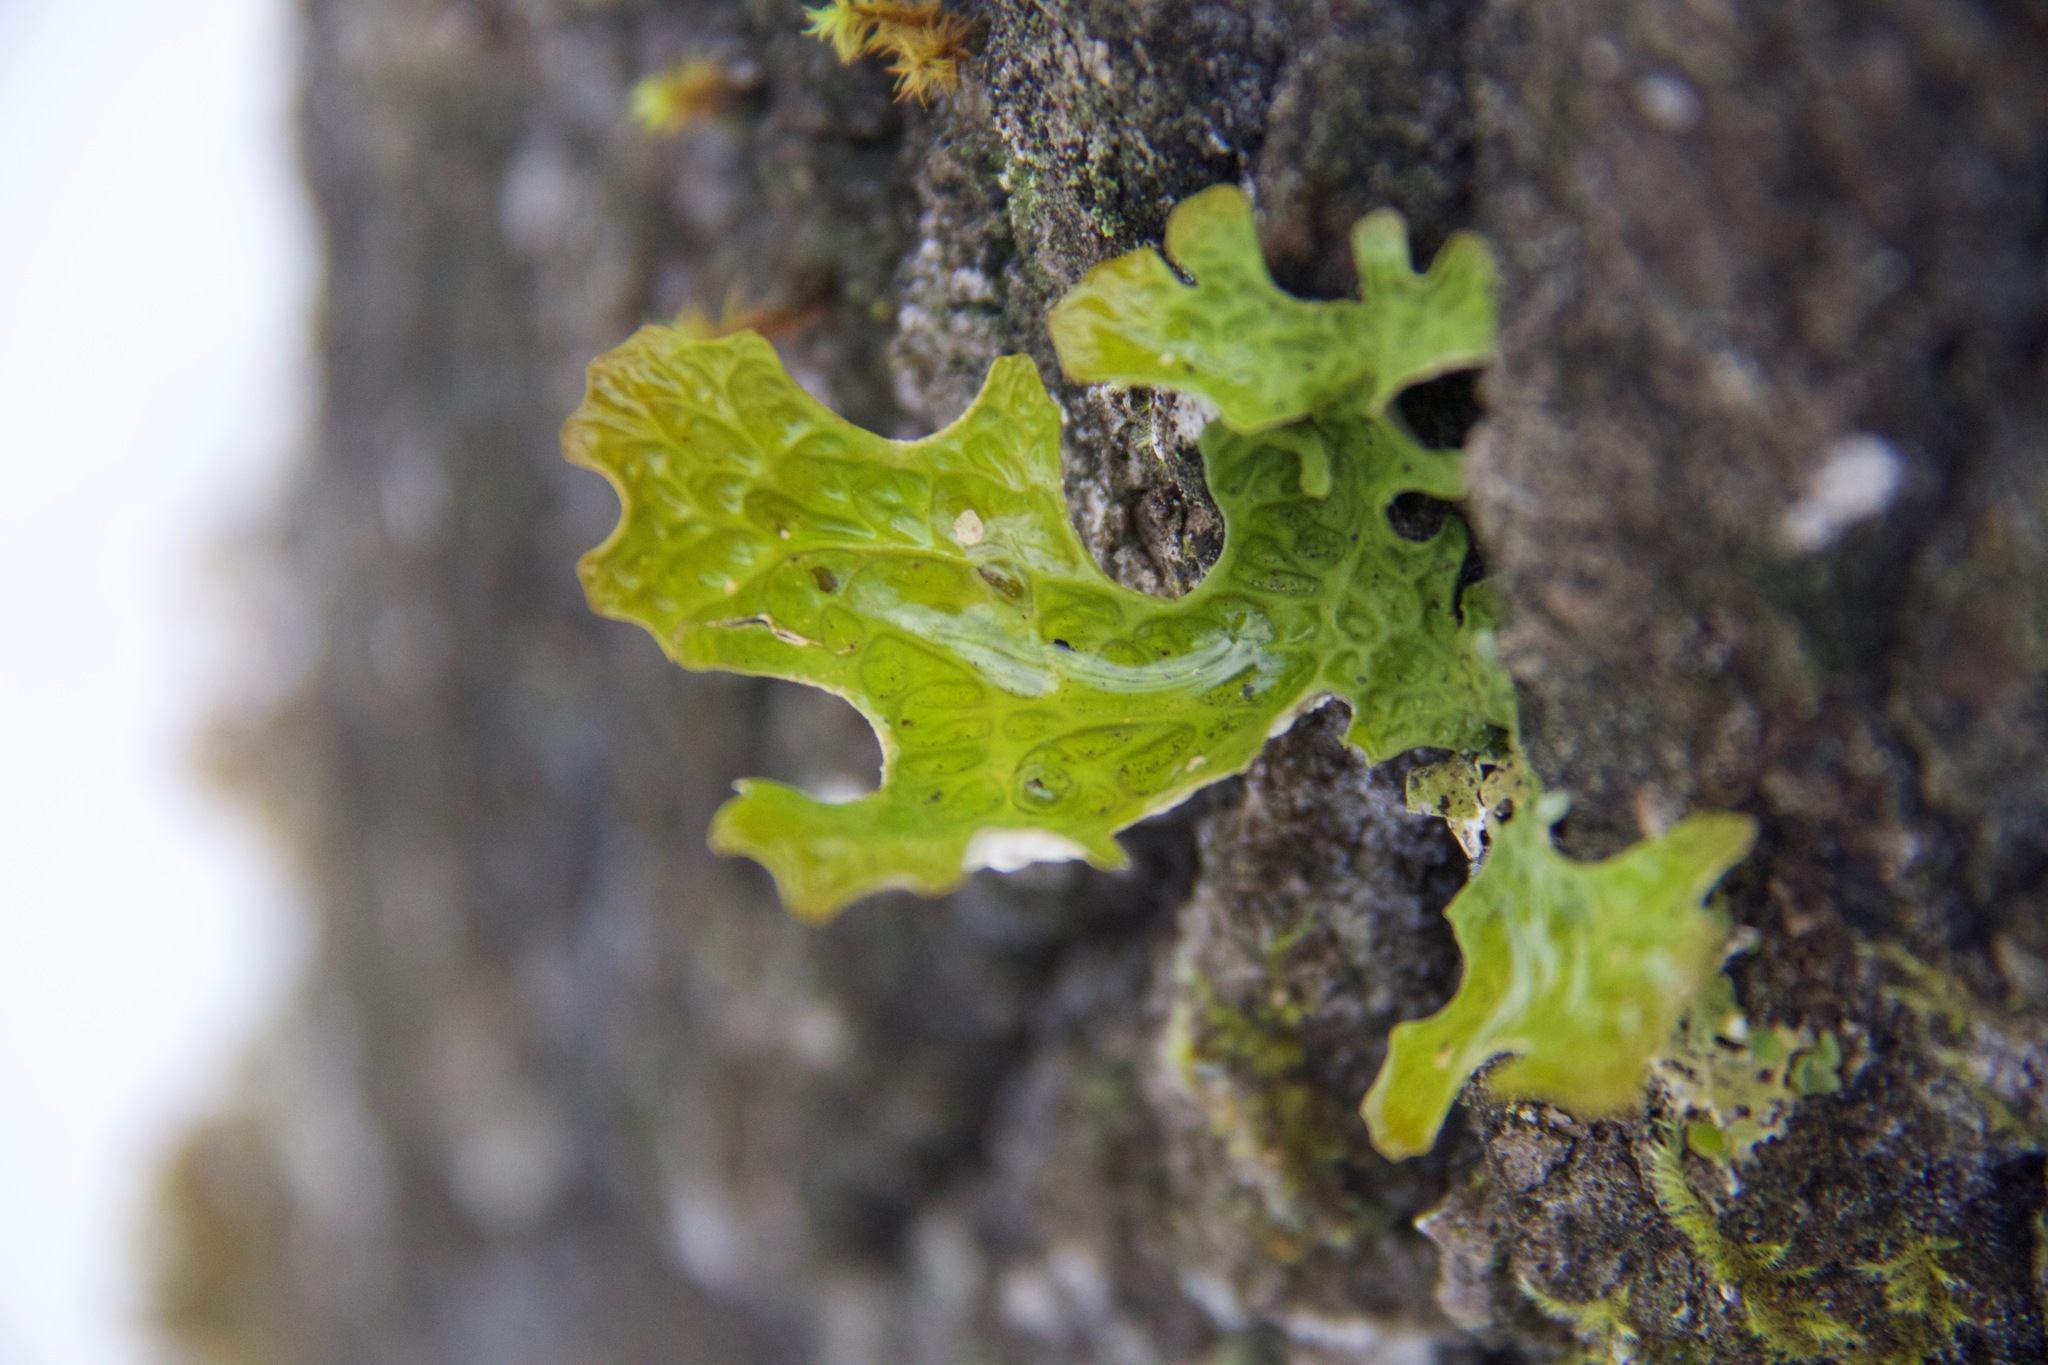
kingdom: Fungi
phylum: Ascomycota
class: Lecanoromycetes
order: Peltigerales
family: Lobariaceae
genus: Lobaria
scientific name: Lobaria pulmonaria
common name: Lungwort
